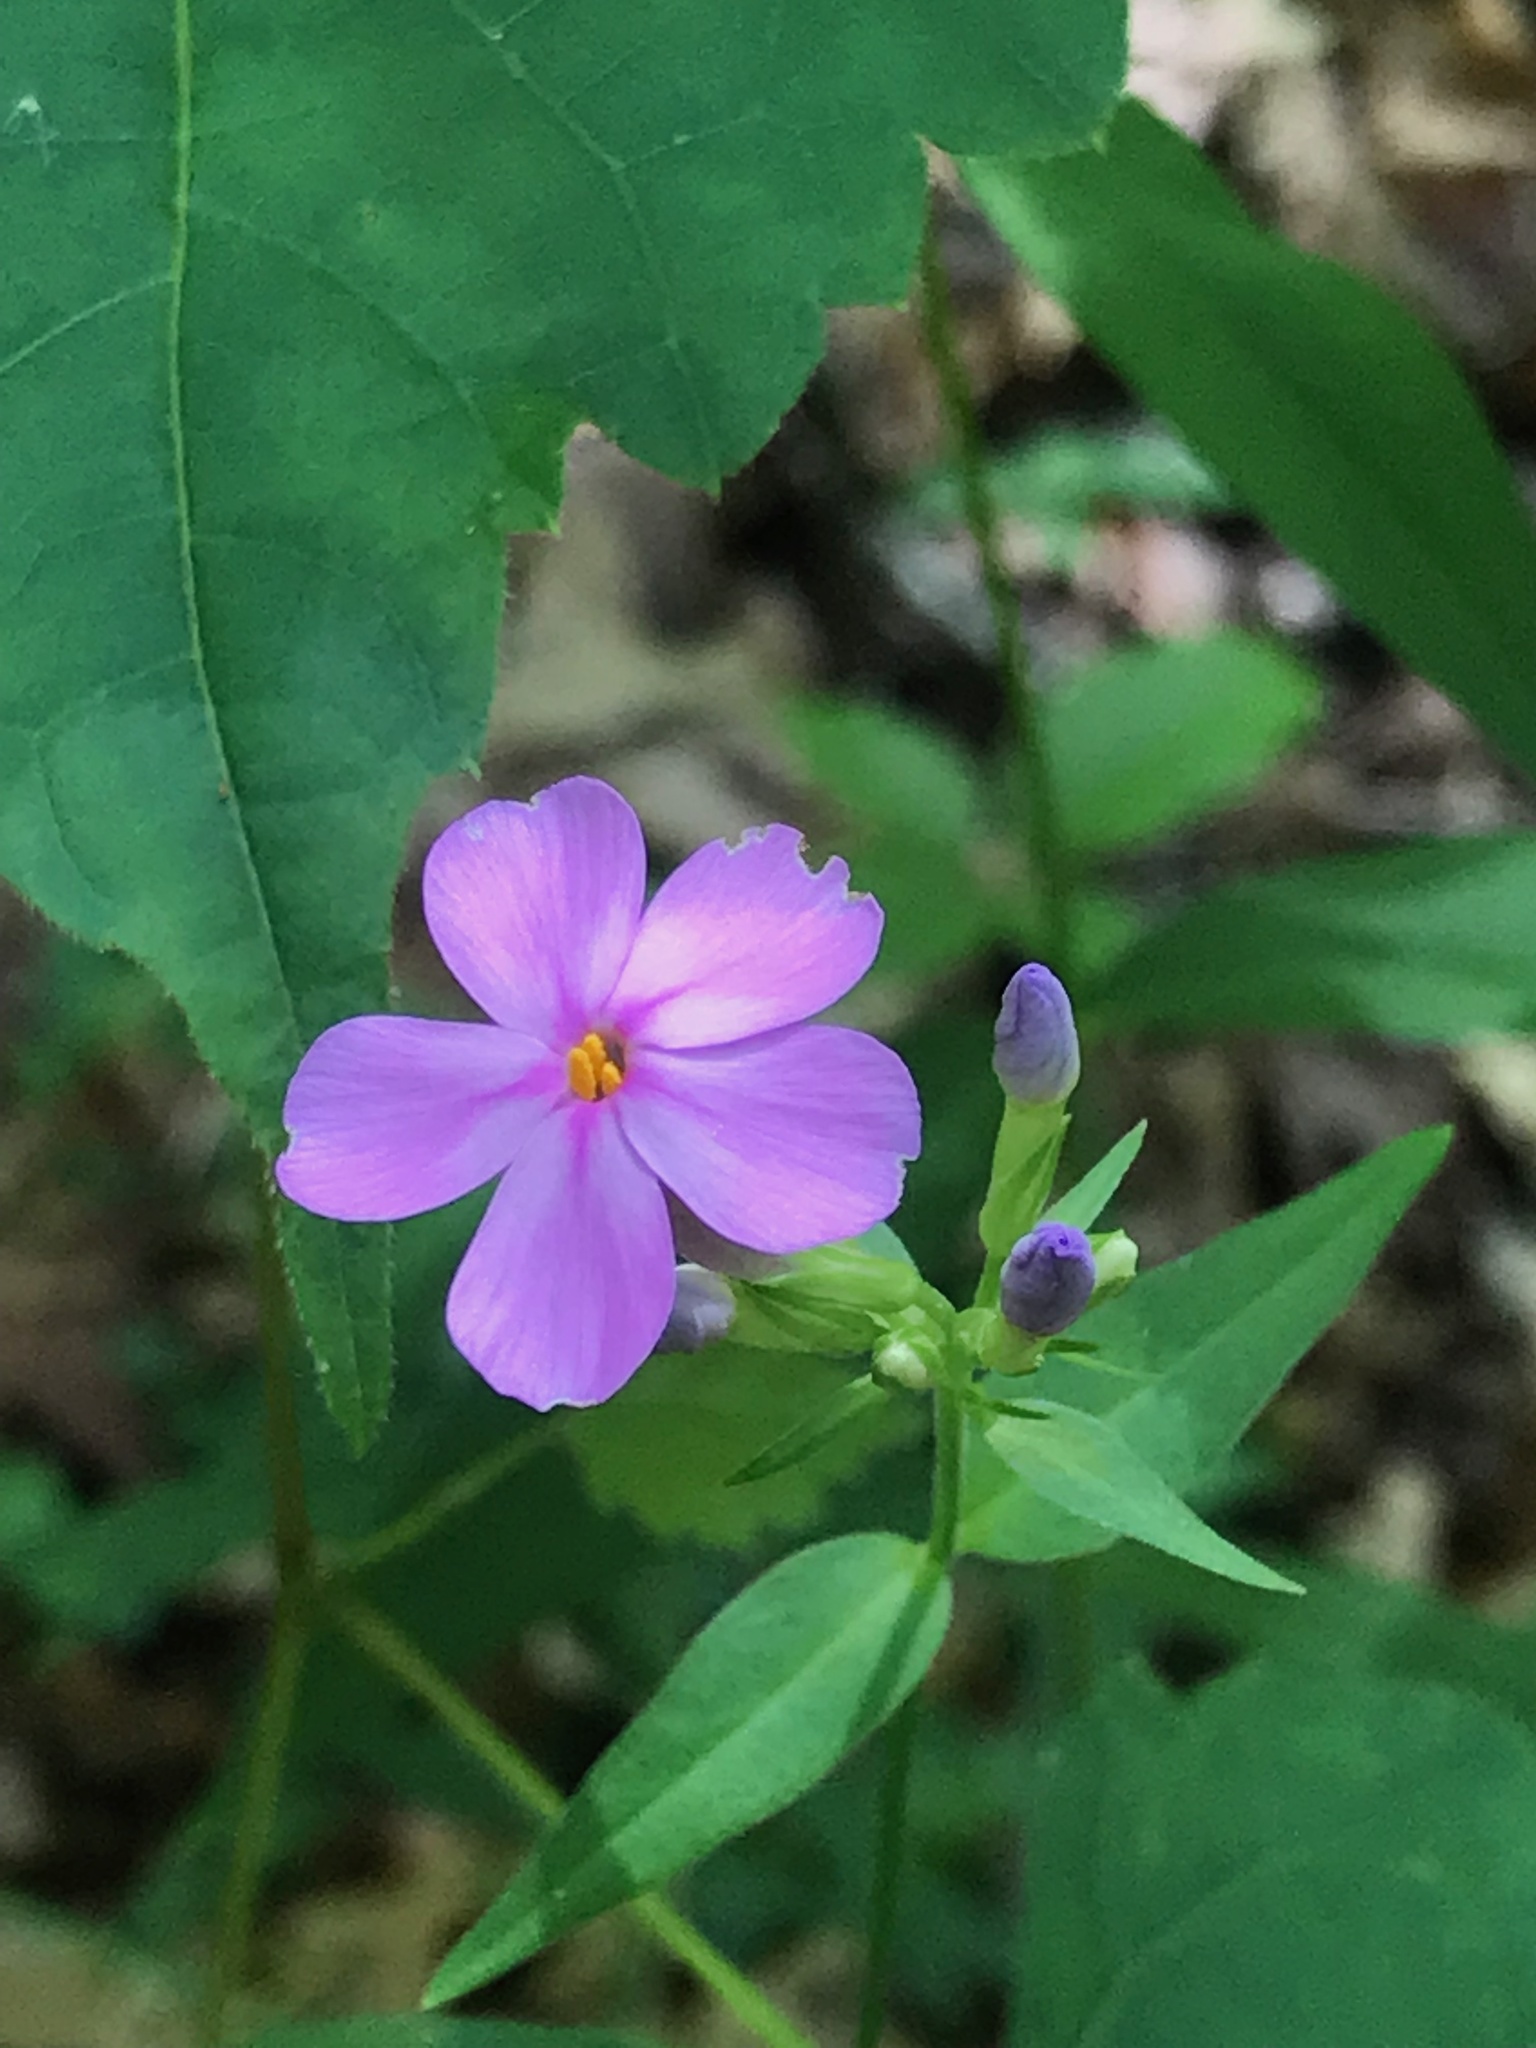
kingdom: Plantae
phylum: Tracheophyta
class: Magnoliopsida
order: Ericales
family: Polemoniaceae
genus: Phlox
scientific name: Phlox carolina
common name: Thick-leaf phlox
